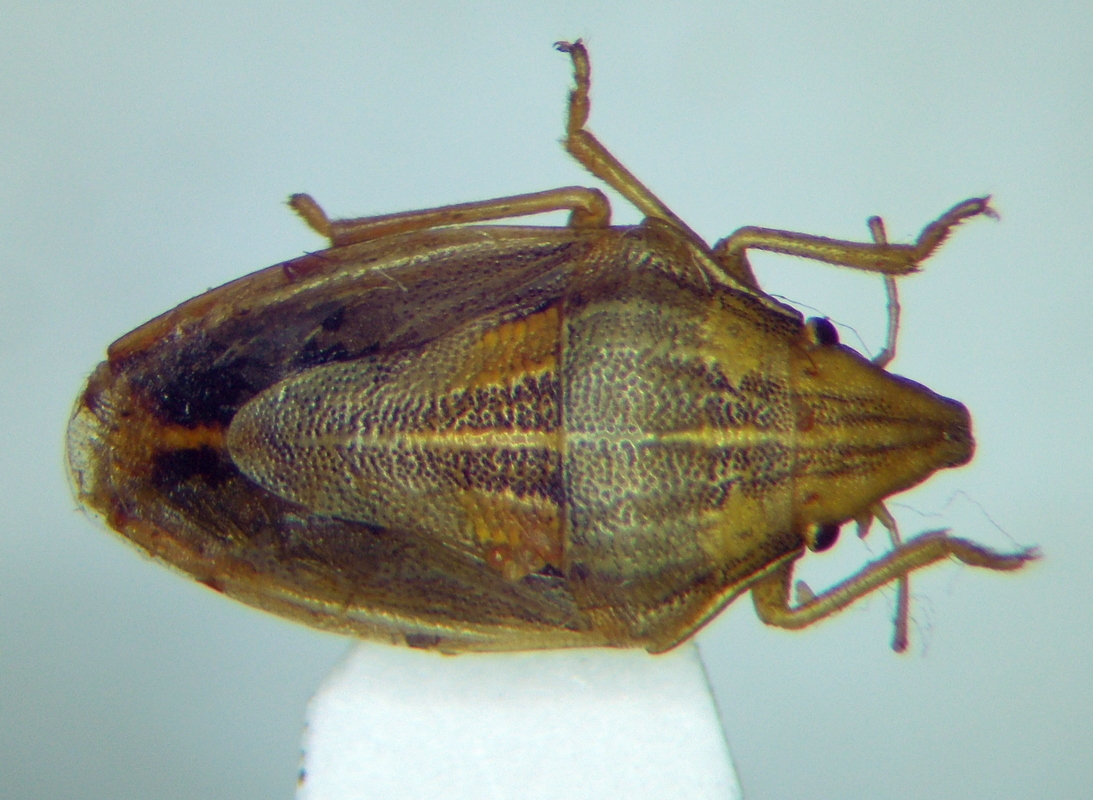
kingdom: Animalia
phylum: Arthropoda
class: Insecta
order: Hemiptera
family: Pentatomidae
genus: Aelia
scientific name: Aelia acuminata
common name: Bishop's mitre
